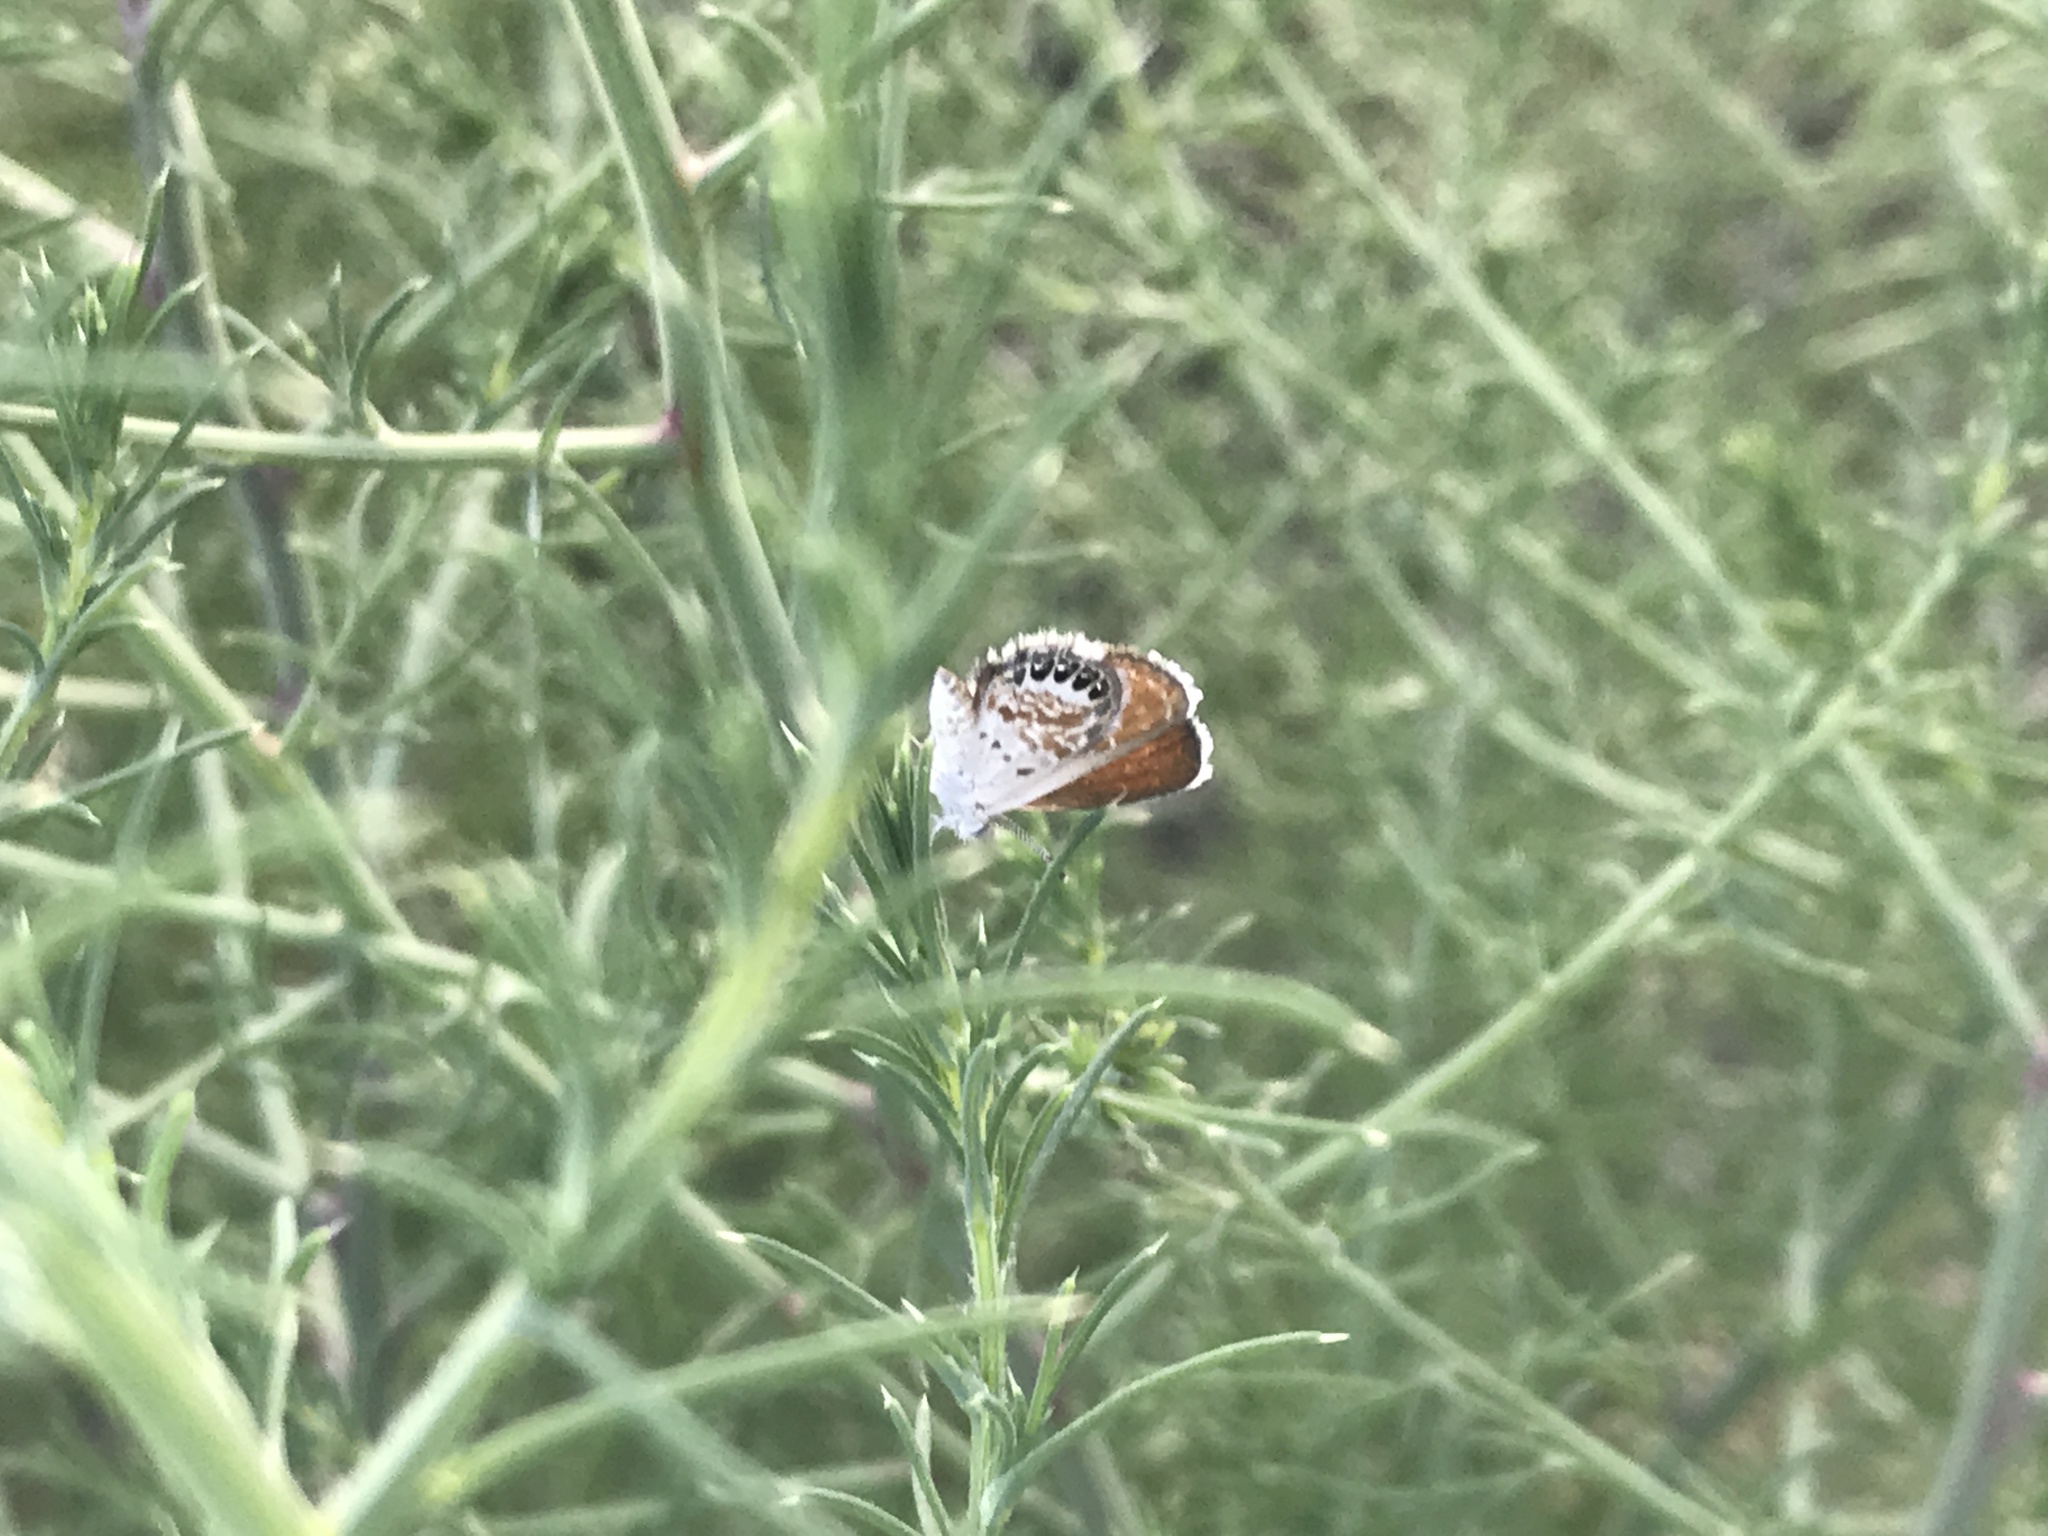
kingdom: Animalia
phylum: Arthropoda
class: Insecta
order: Lepidoptera
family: Lycaenidae
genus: Brephidium
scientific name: Brephidium exilis
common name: Pygmy blue
